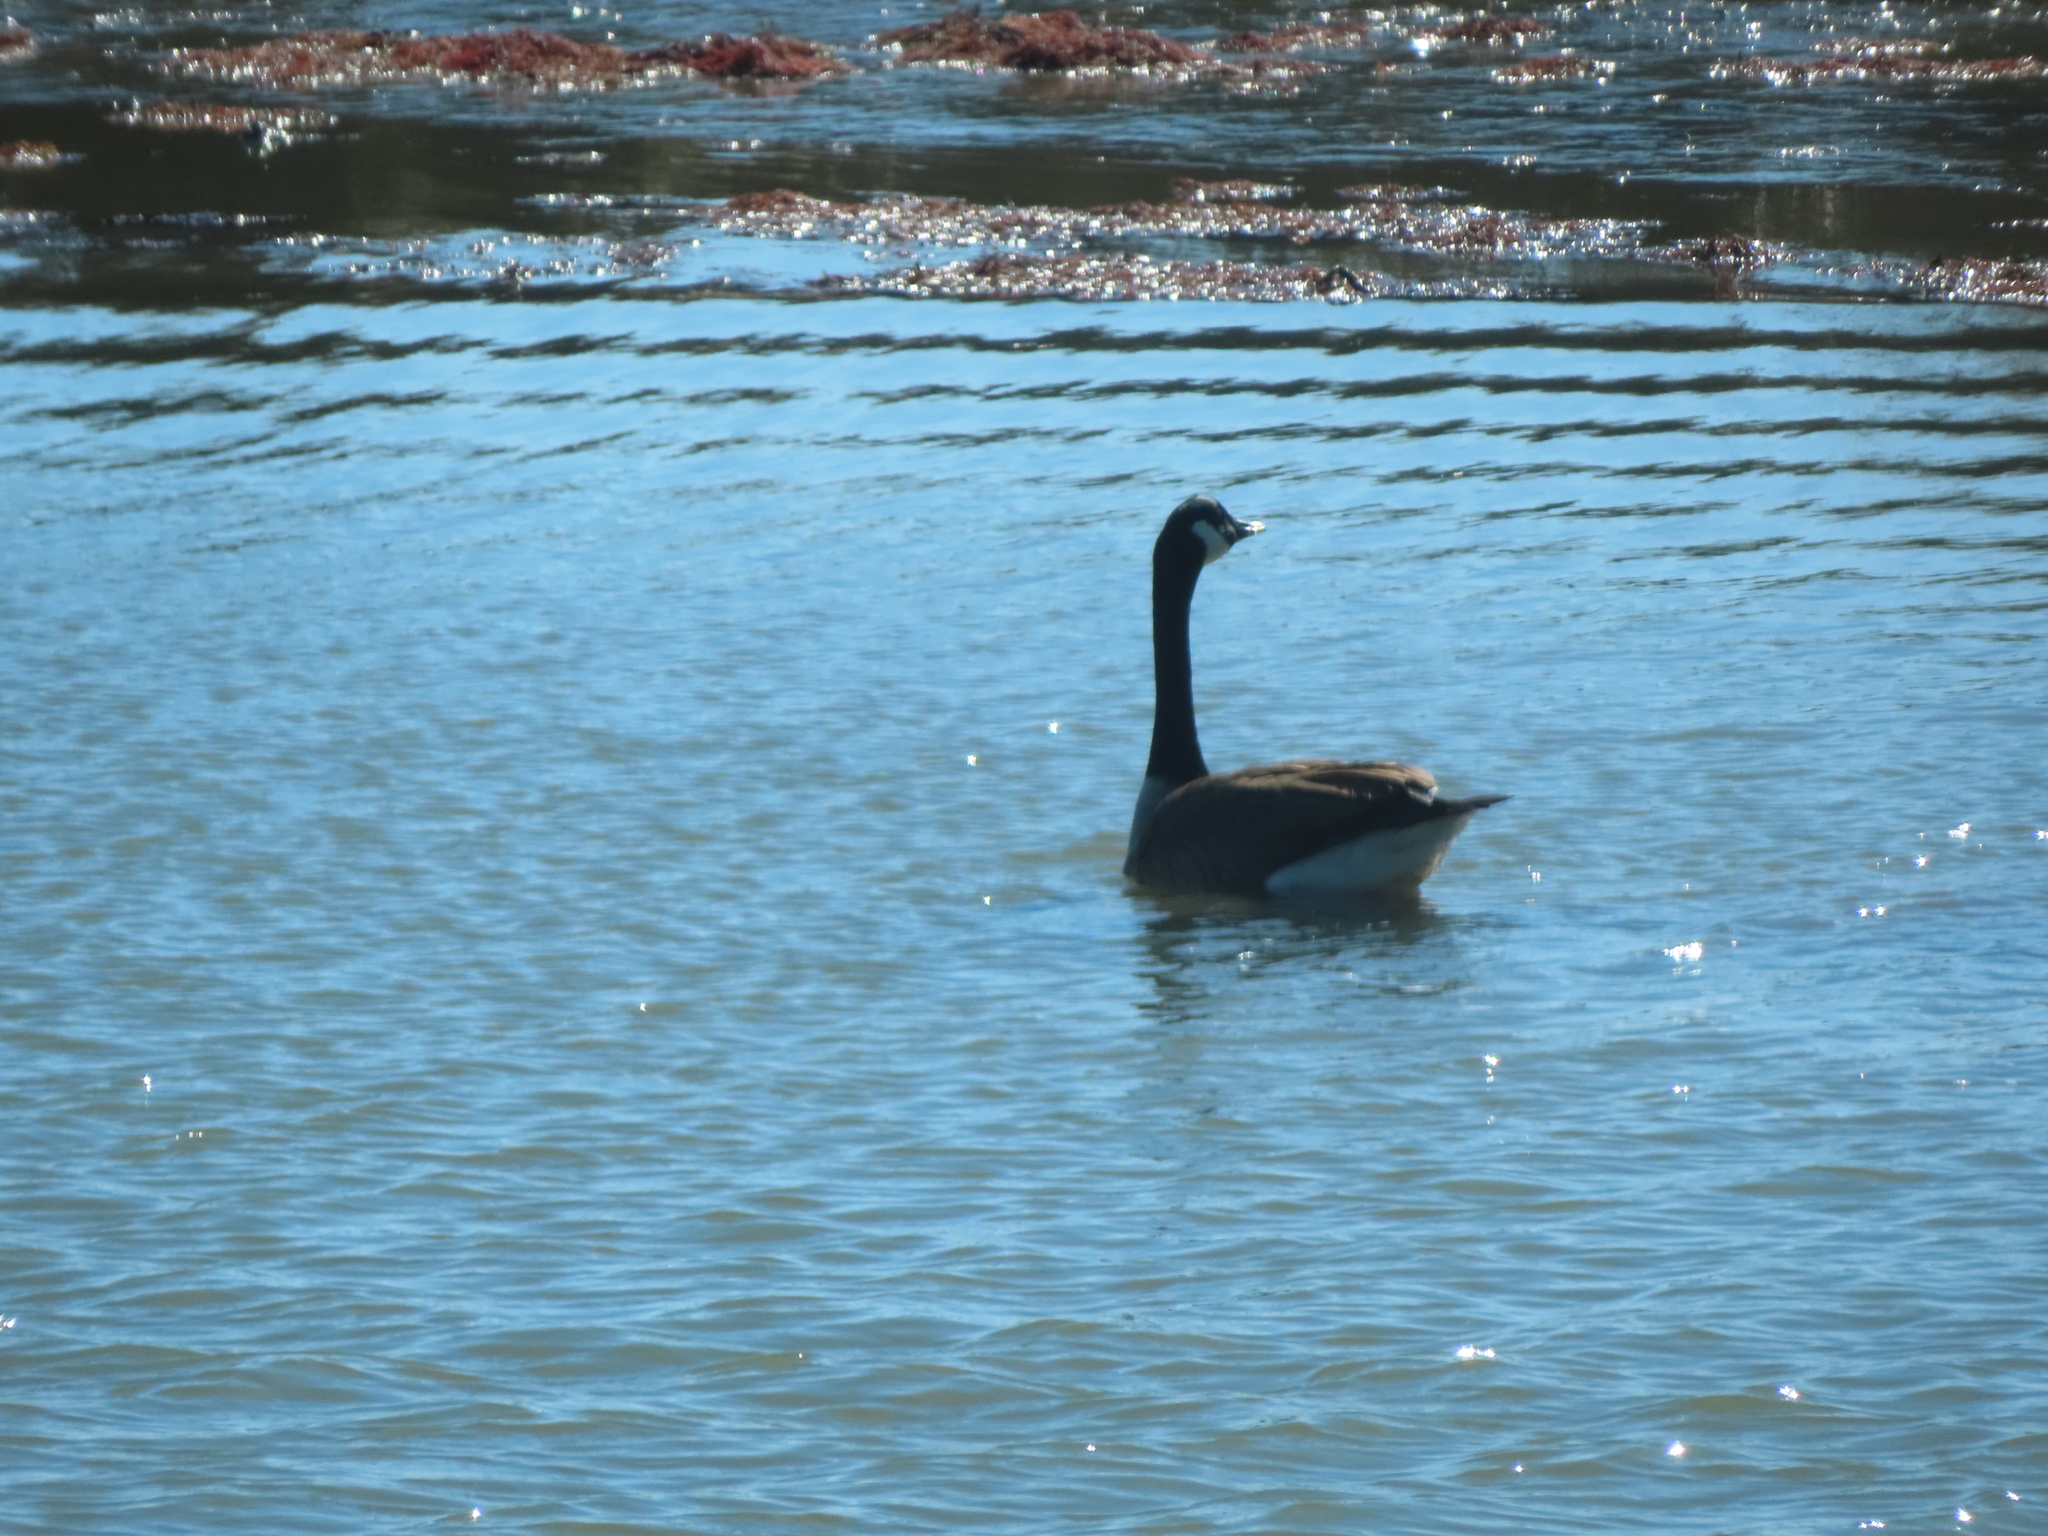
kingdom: Animalia
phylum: Chordata
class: Aves
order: Anseriformes
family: Anatidae
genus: Branta
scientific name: Branta canadensis
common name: Canada goose
